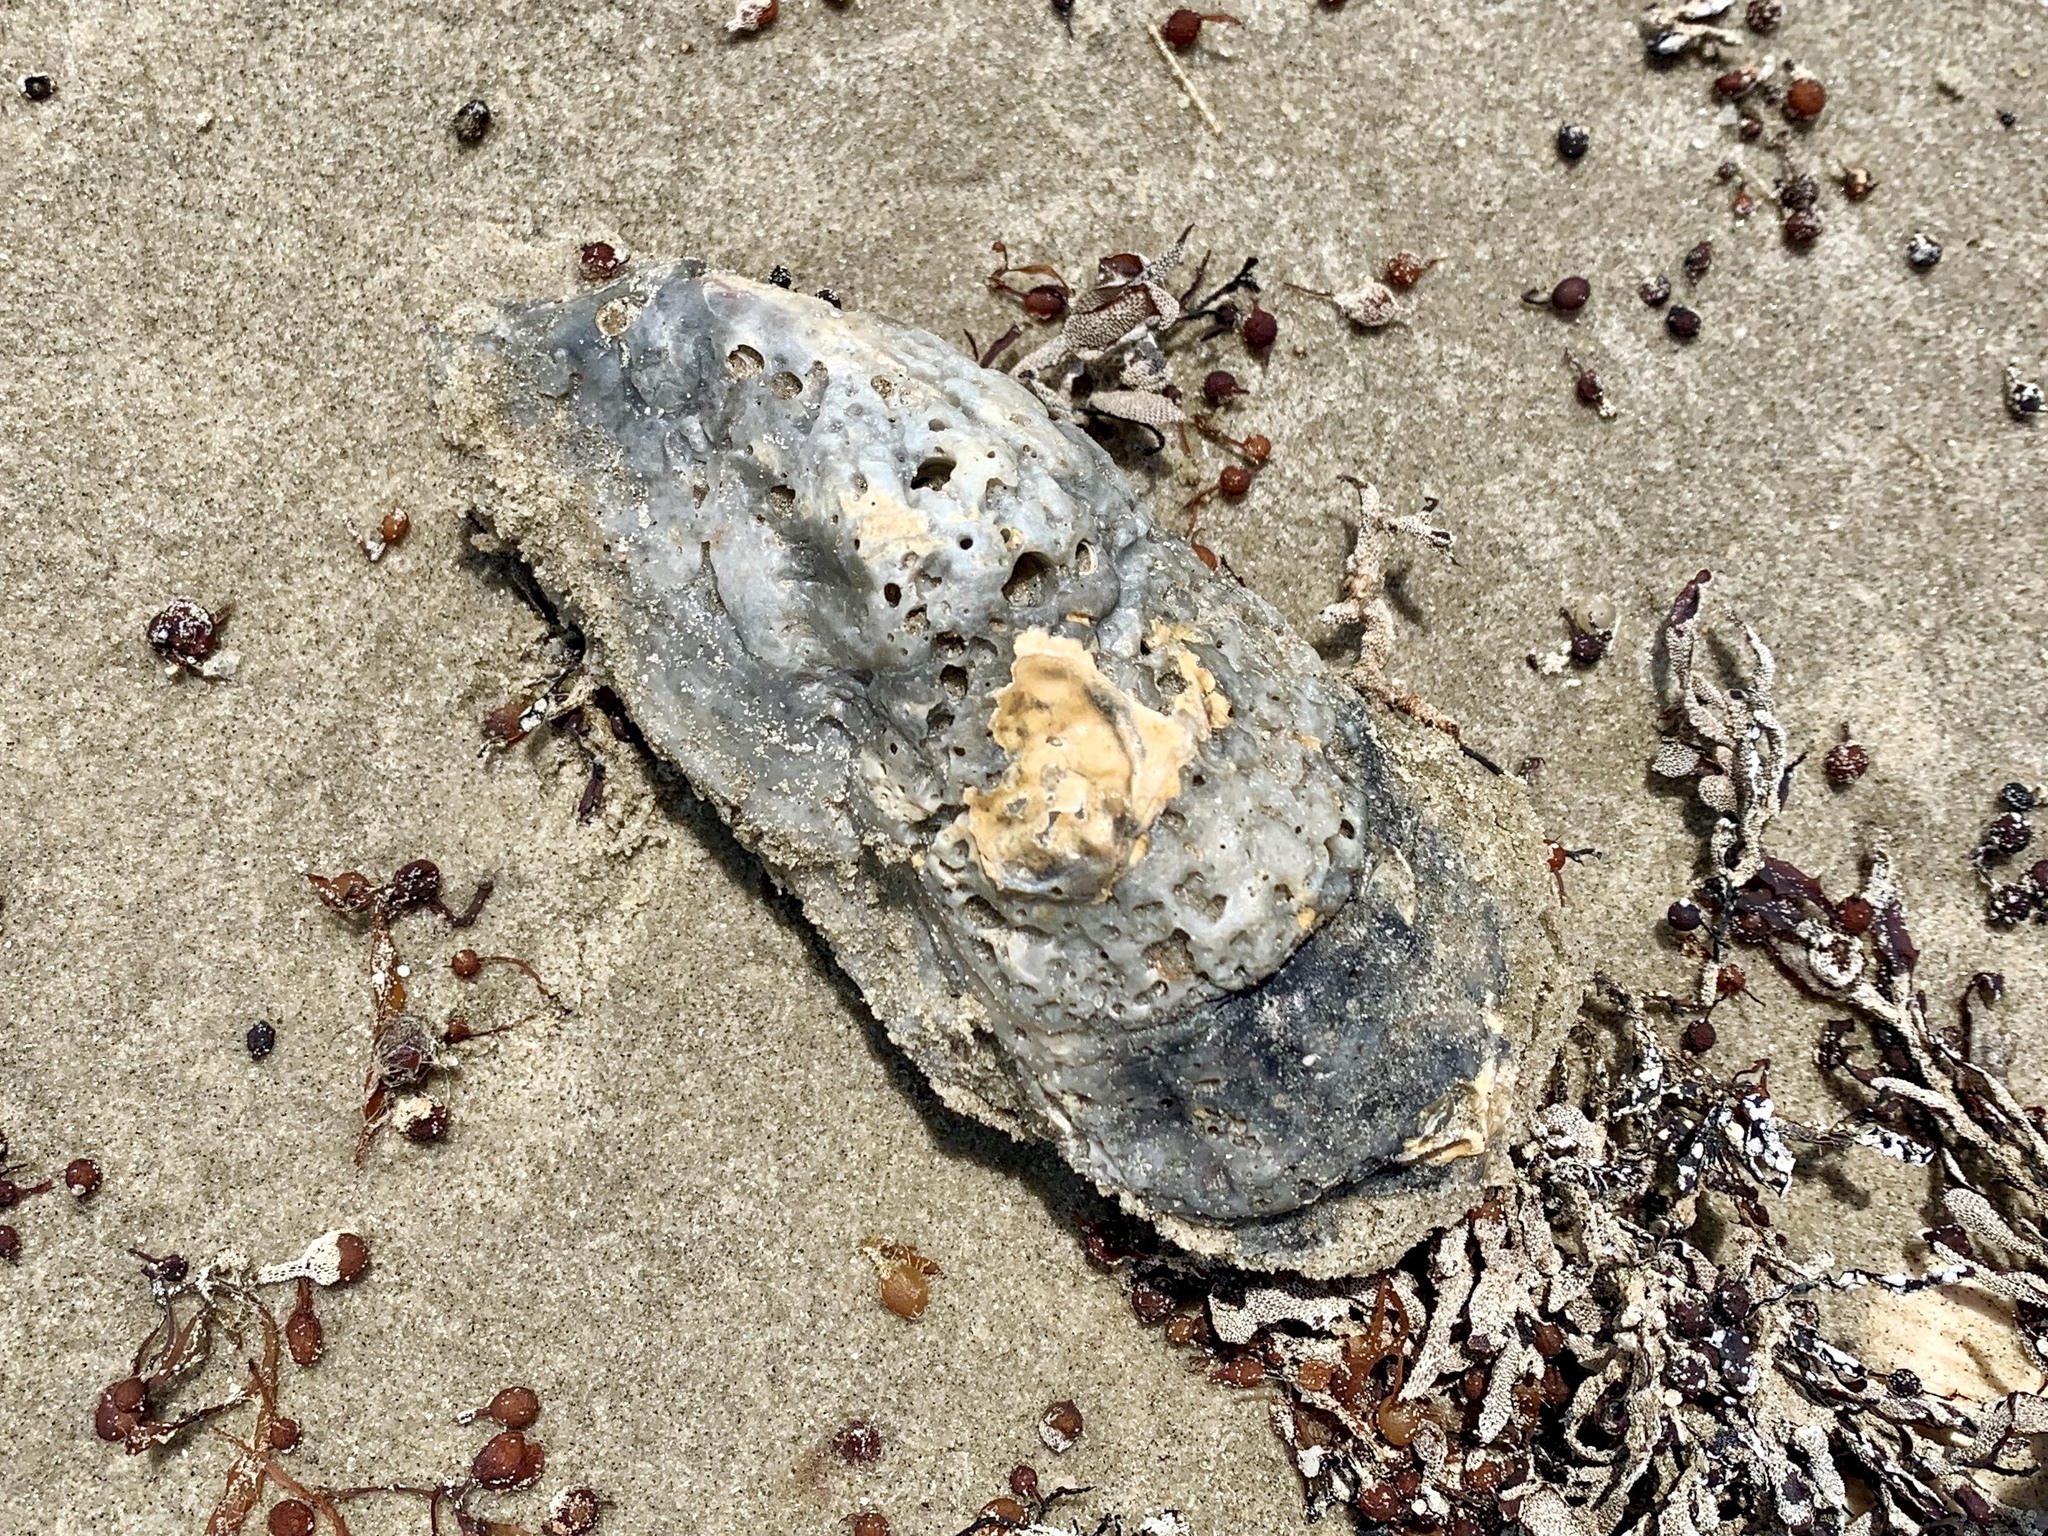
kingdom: Animalia
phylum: Mollusca
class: Bivalvia
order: Ostreida
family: Ostreidae
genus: Crassostrea
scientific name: Crassostrea virginica
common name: American oyster
